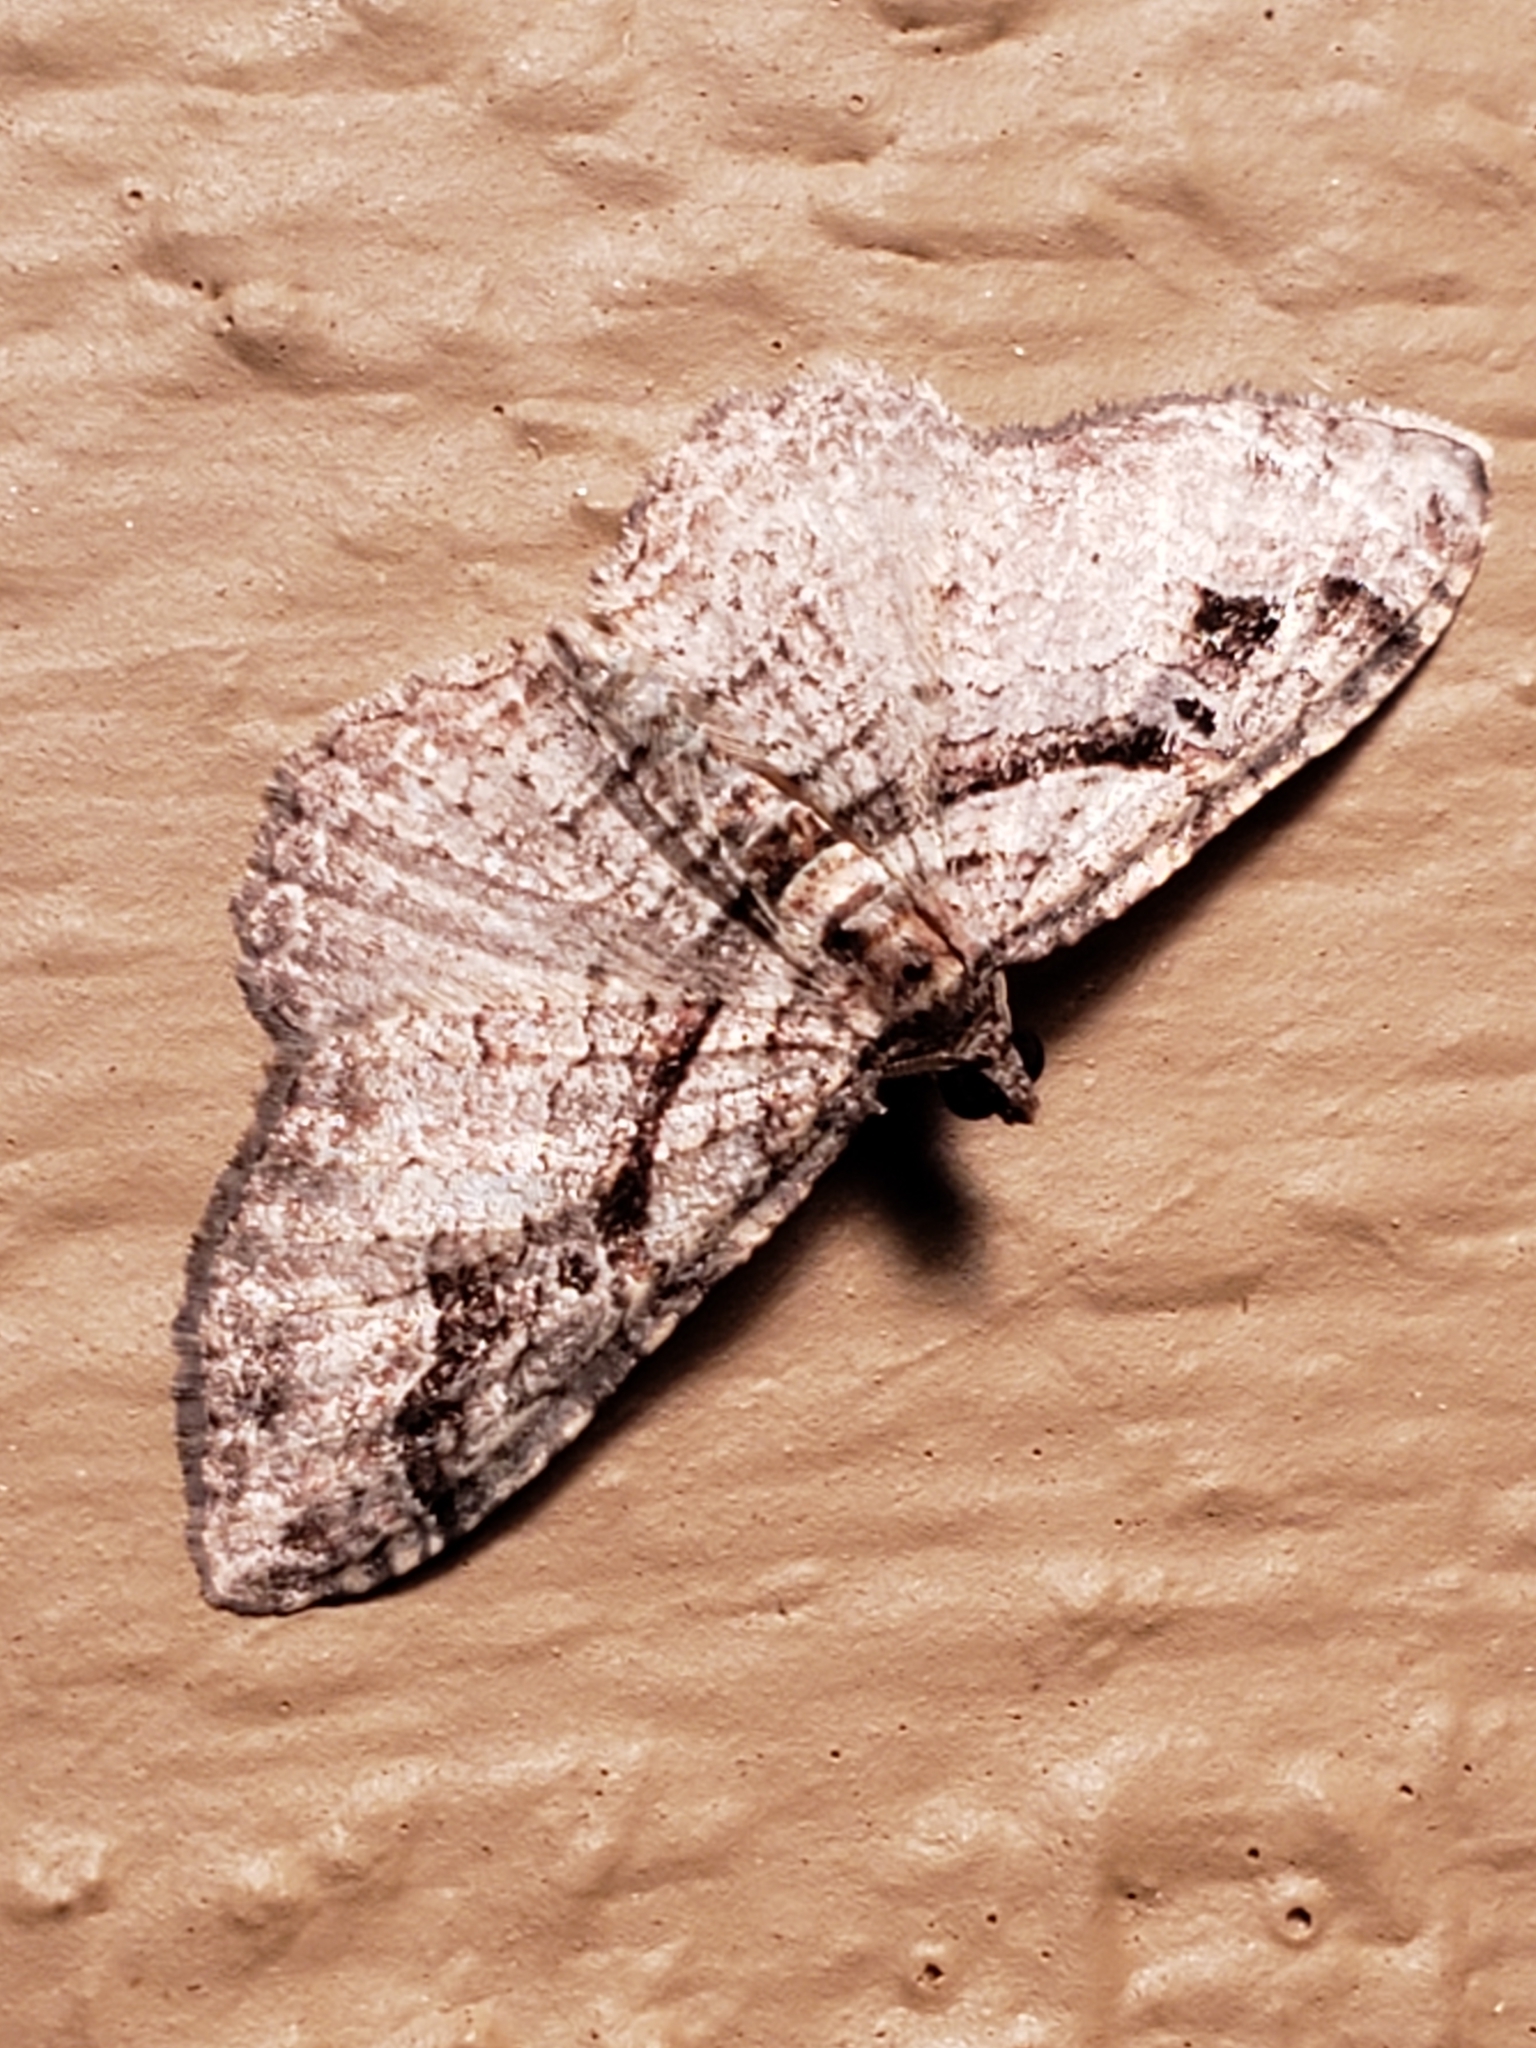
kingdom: Animalia
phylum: Arthropoda
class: Insecta
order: Lepidoptera
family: Geometridae
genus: Costaconvexa
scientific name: Costaconvexa centrostrigaria
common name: Bent-line carpet
